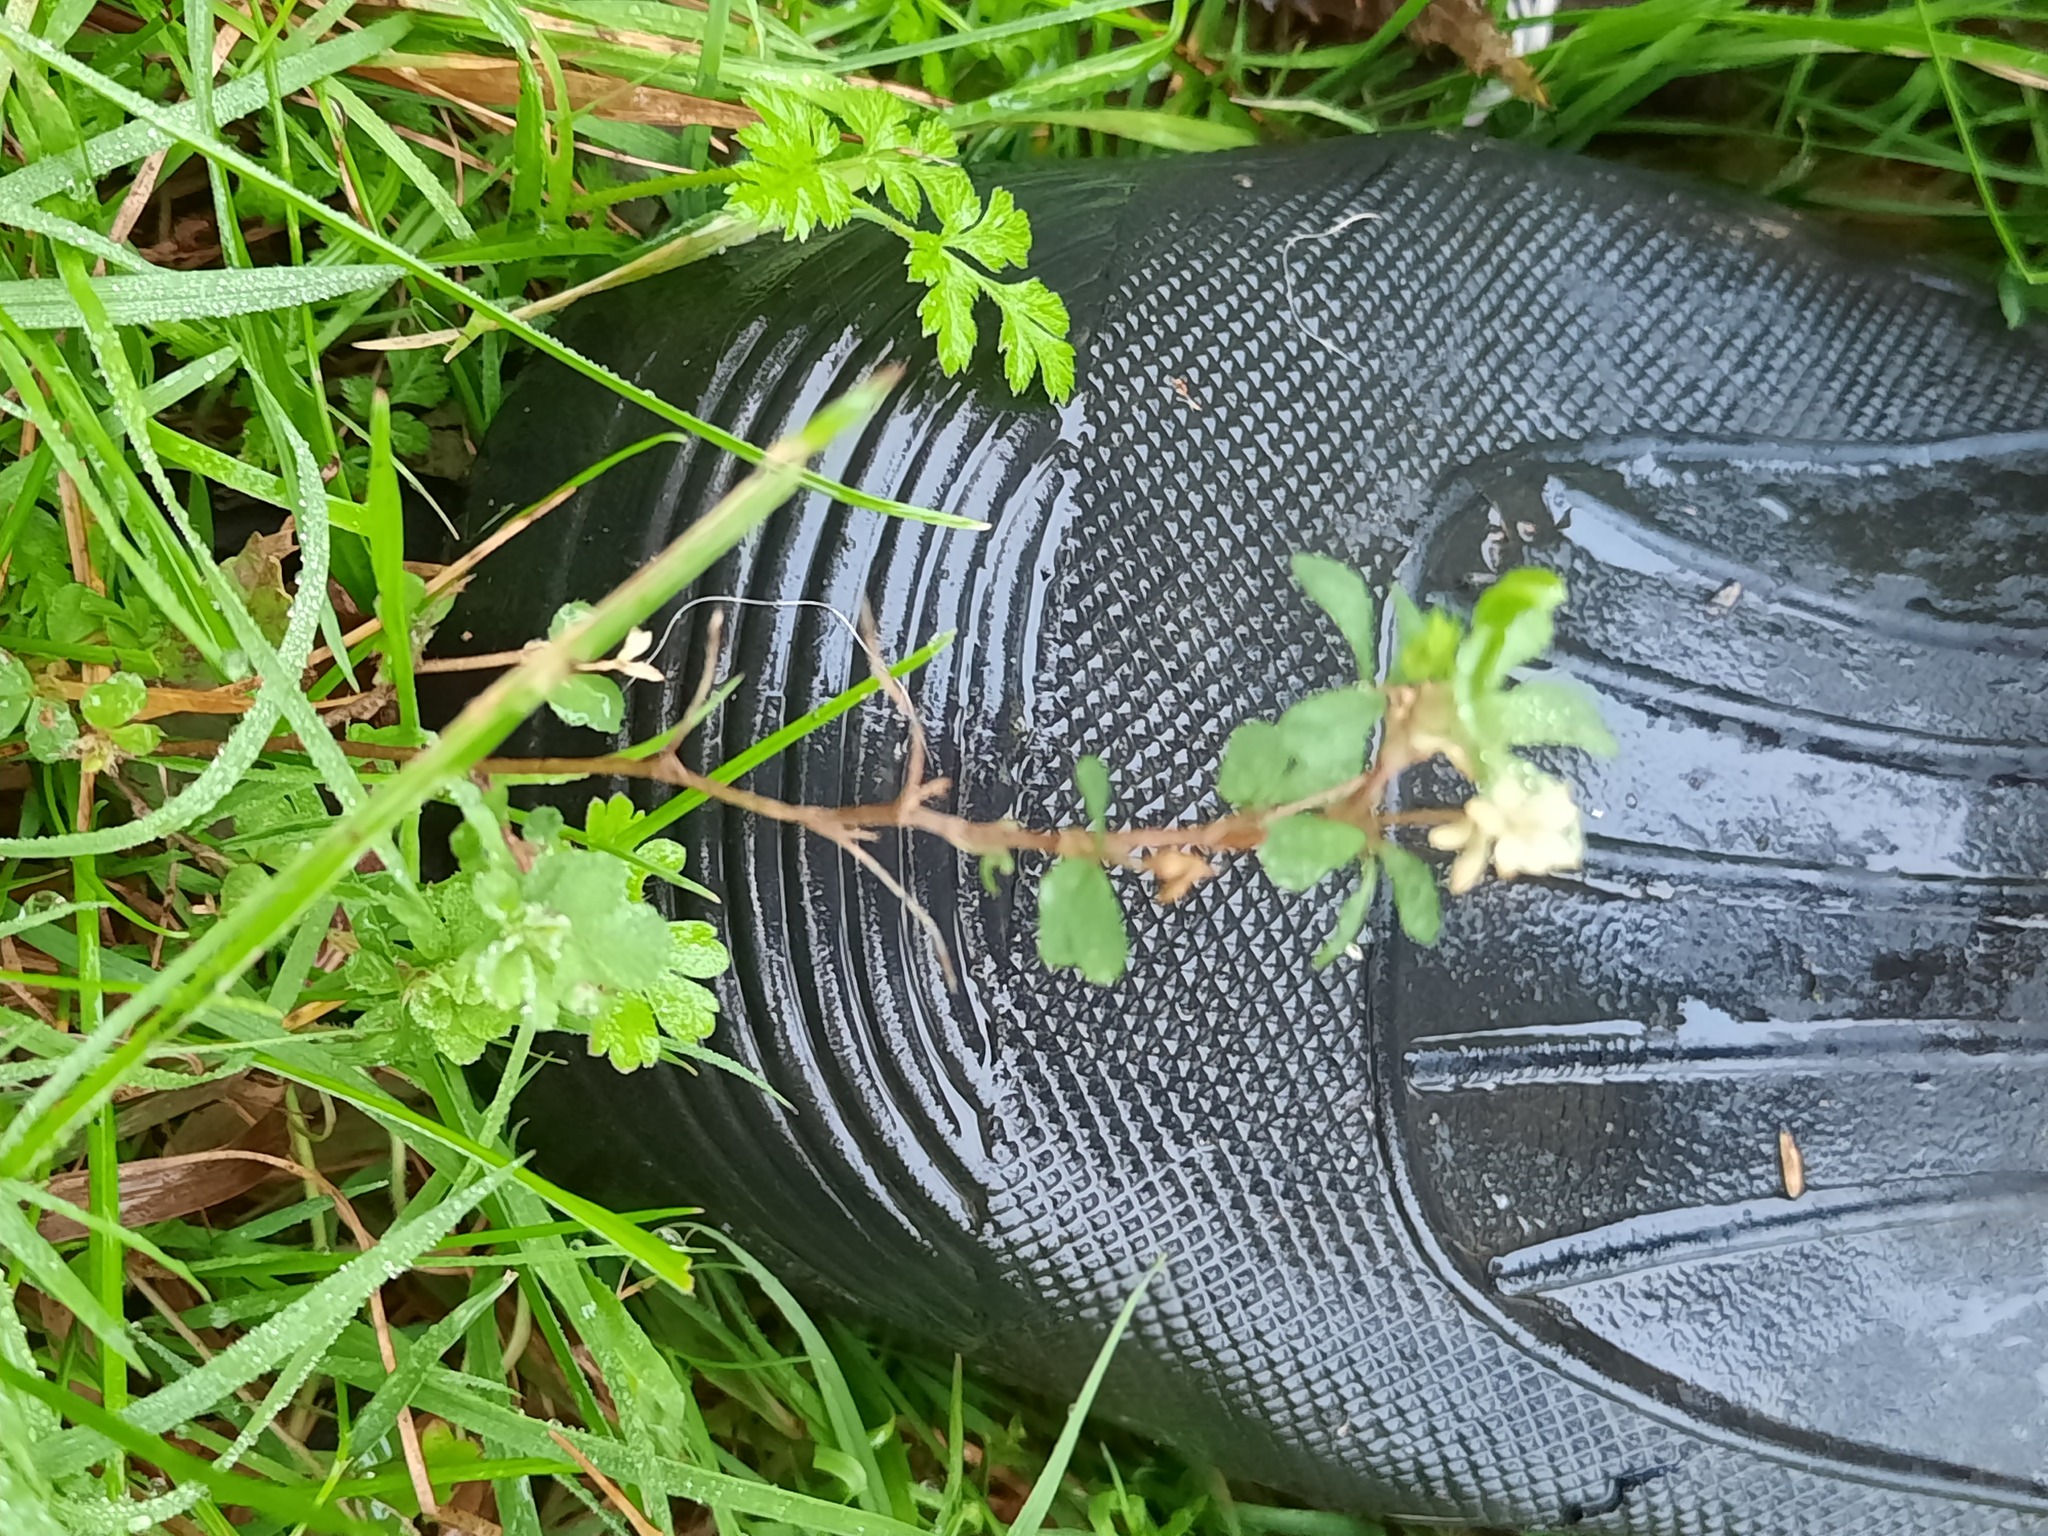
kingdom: Plantae
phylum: Tracheophyta
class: Magnoliopsida
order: Fabales
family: Fabaceae
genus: Trifolium
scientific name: Trifolium dubium
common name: Suckling clover
